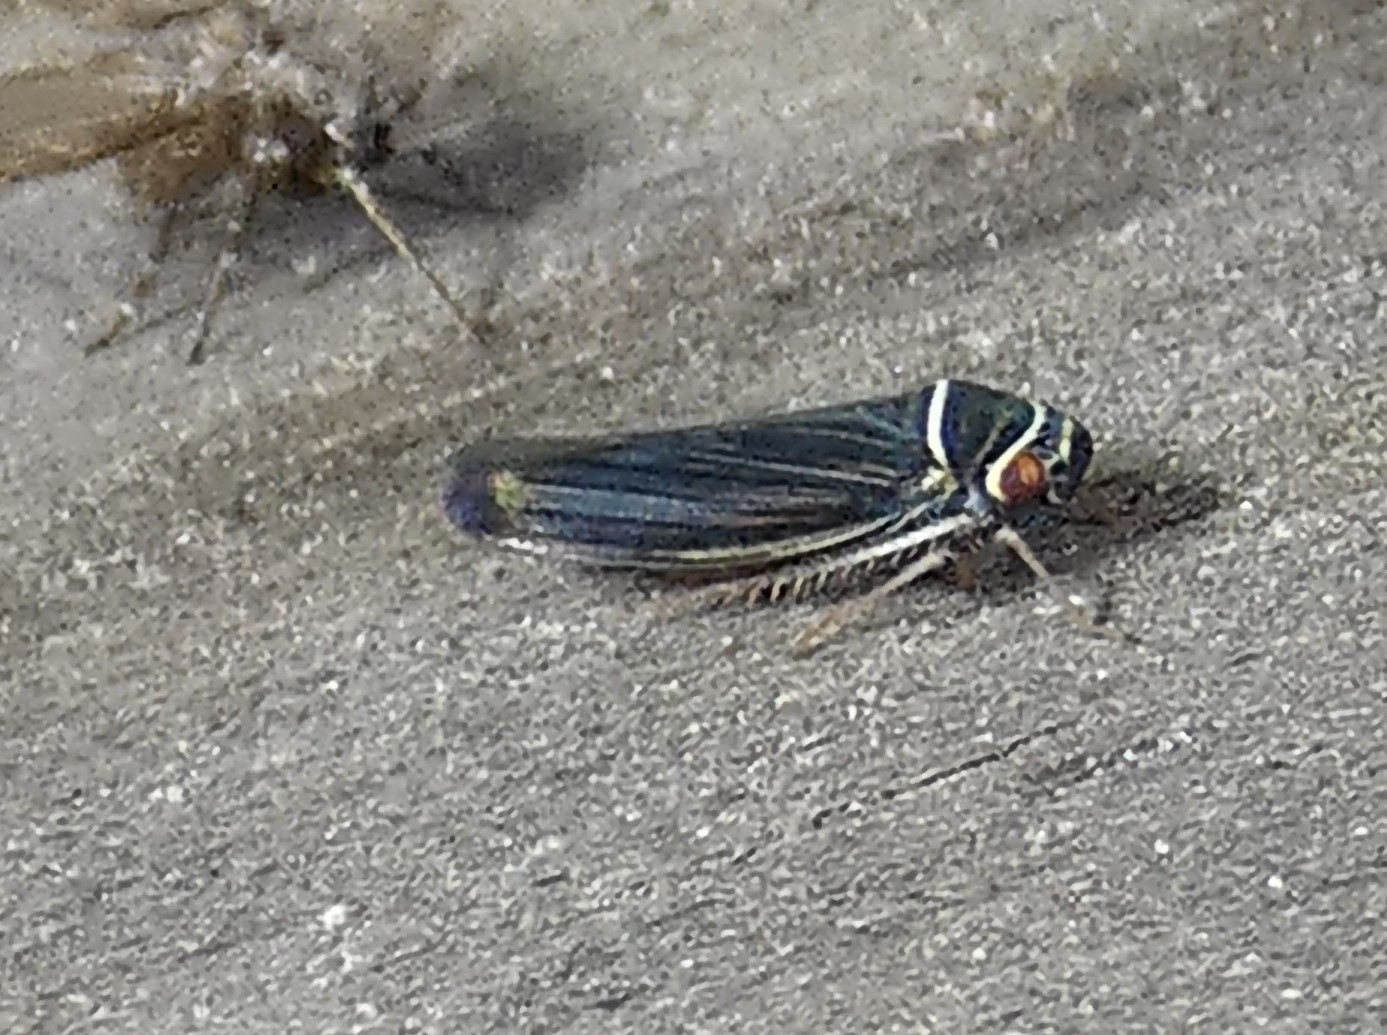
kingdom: Animalia
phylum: Arthropoda
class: Insecta
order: Hemiptera
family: Cicadellidae
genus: Tylozygus
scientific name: Tylozygus bifidus
